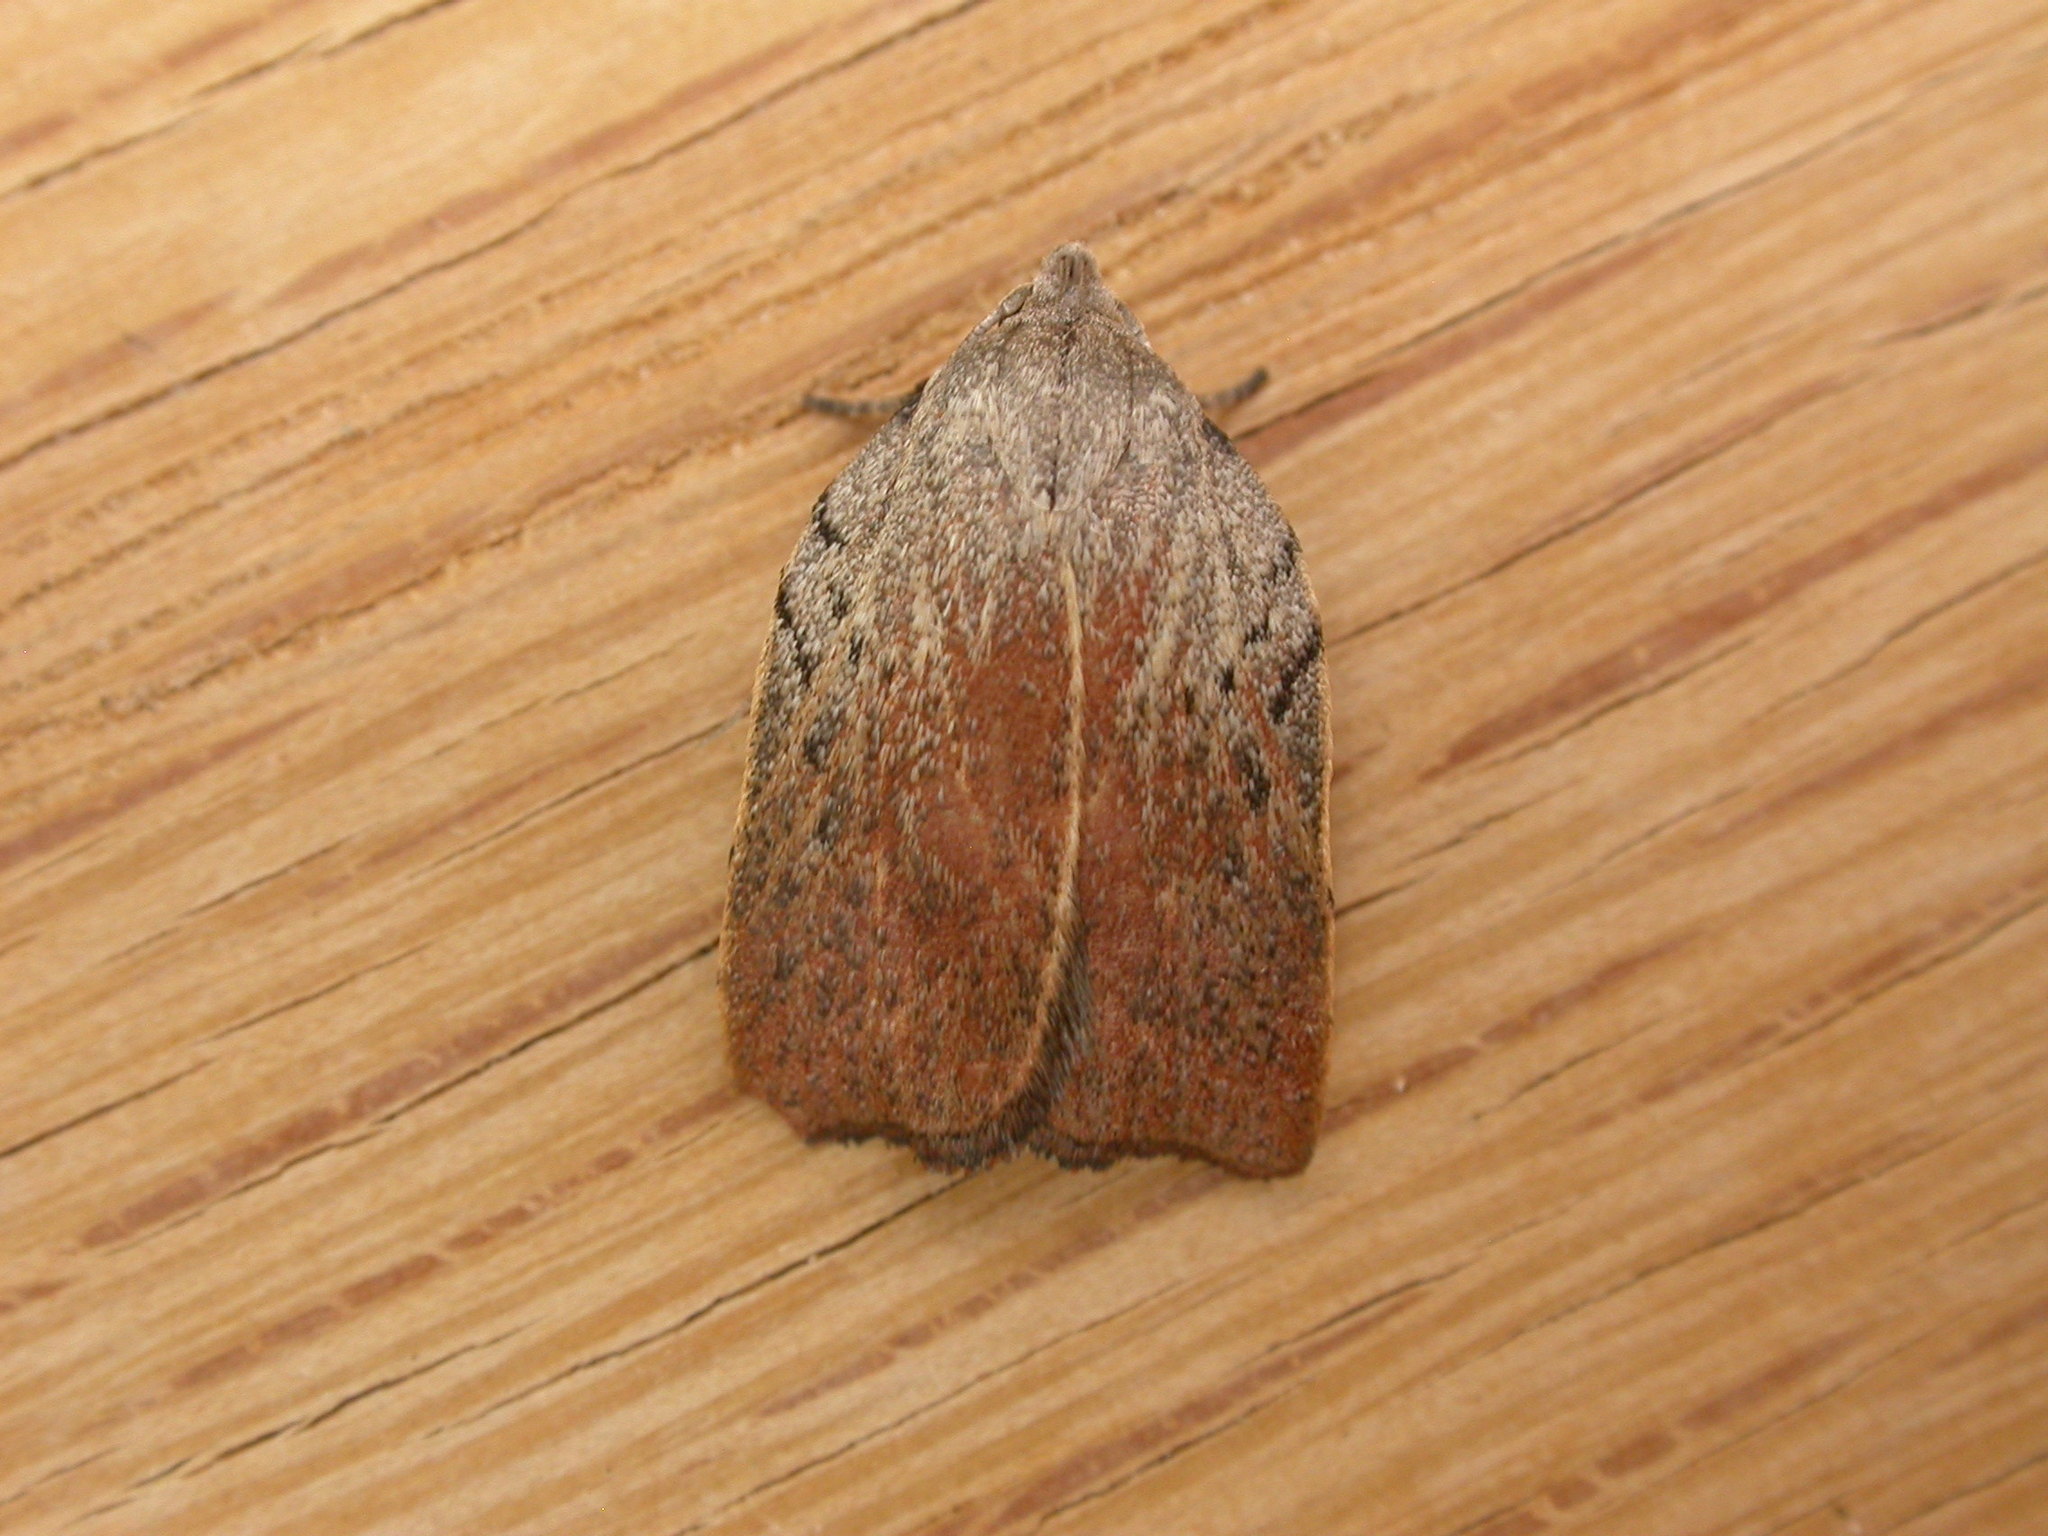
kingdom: Animalia
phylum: Arthropoda
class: Insecta
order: Lepidoptera
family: Oecophoridae
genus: Tortricopsis
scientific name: Tortricopsis pyroptis
